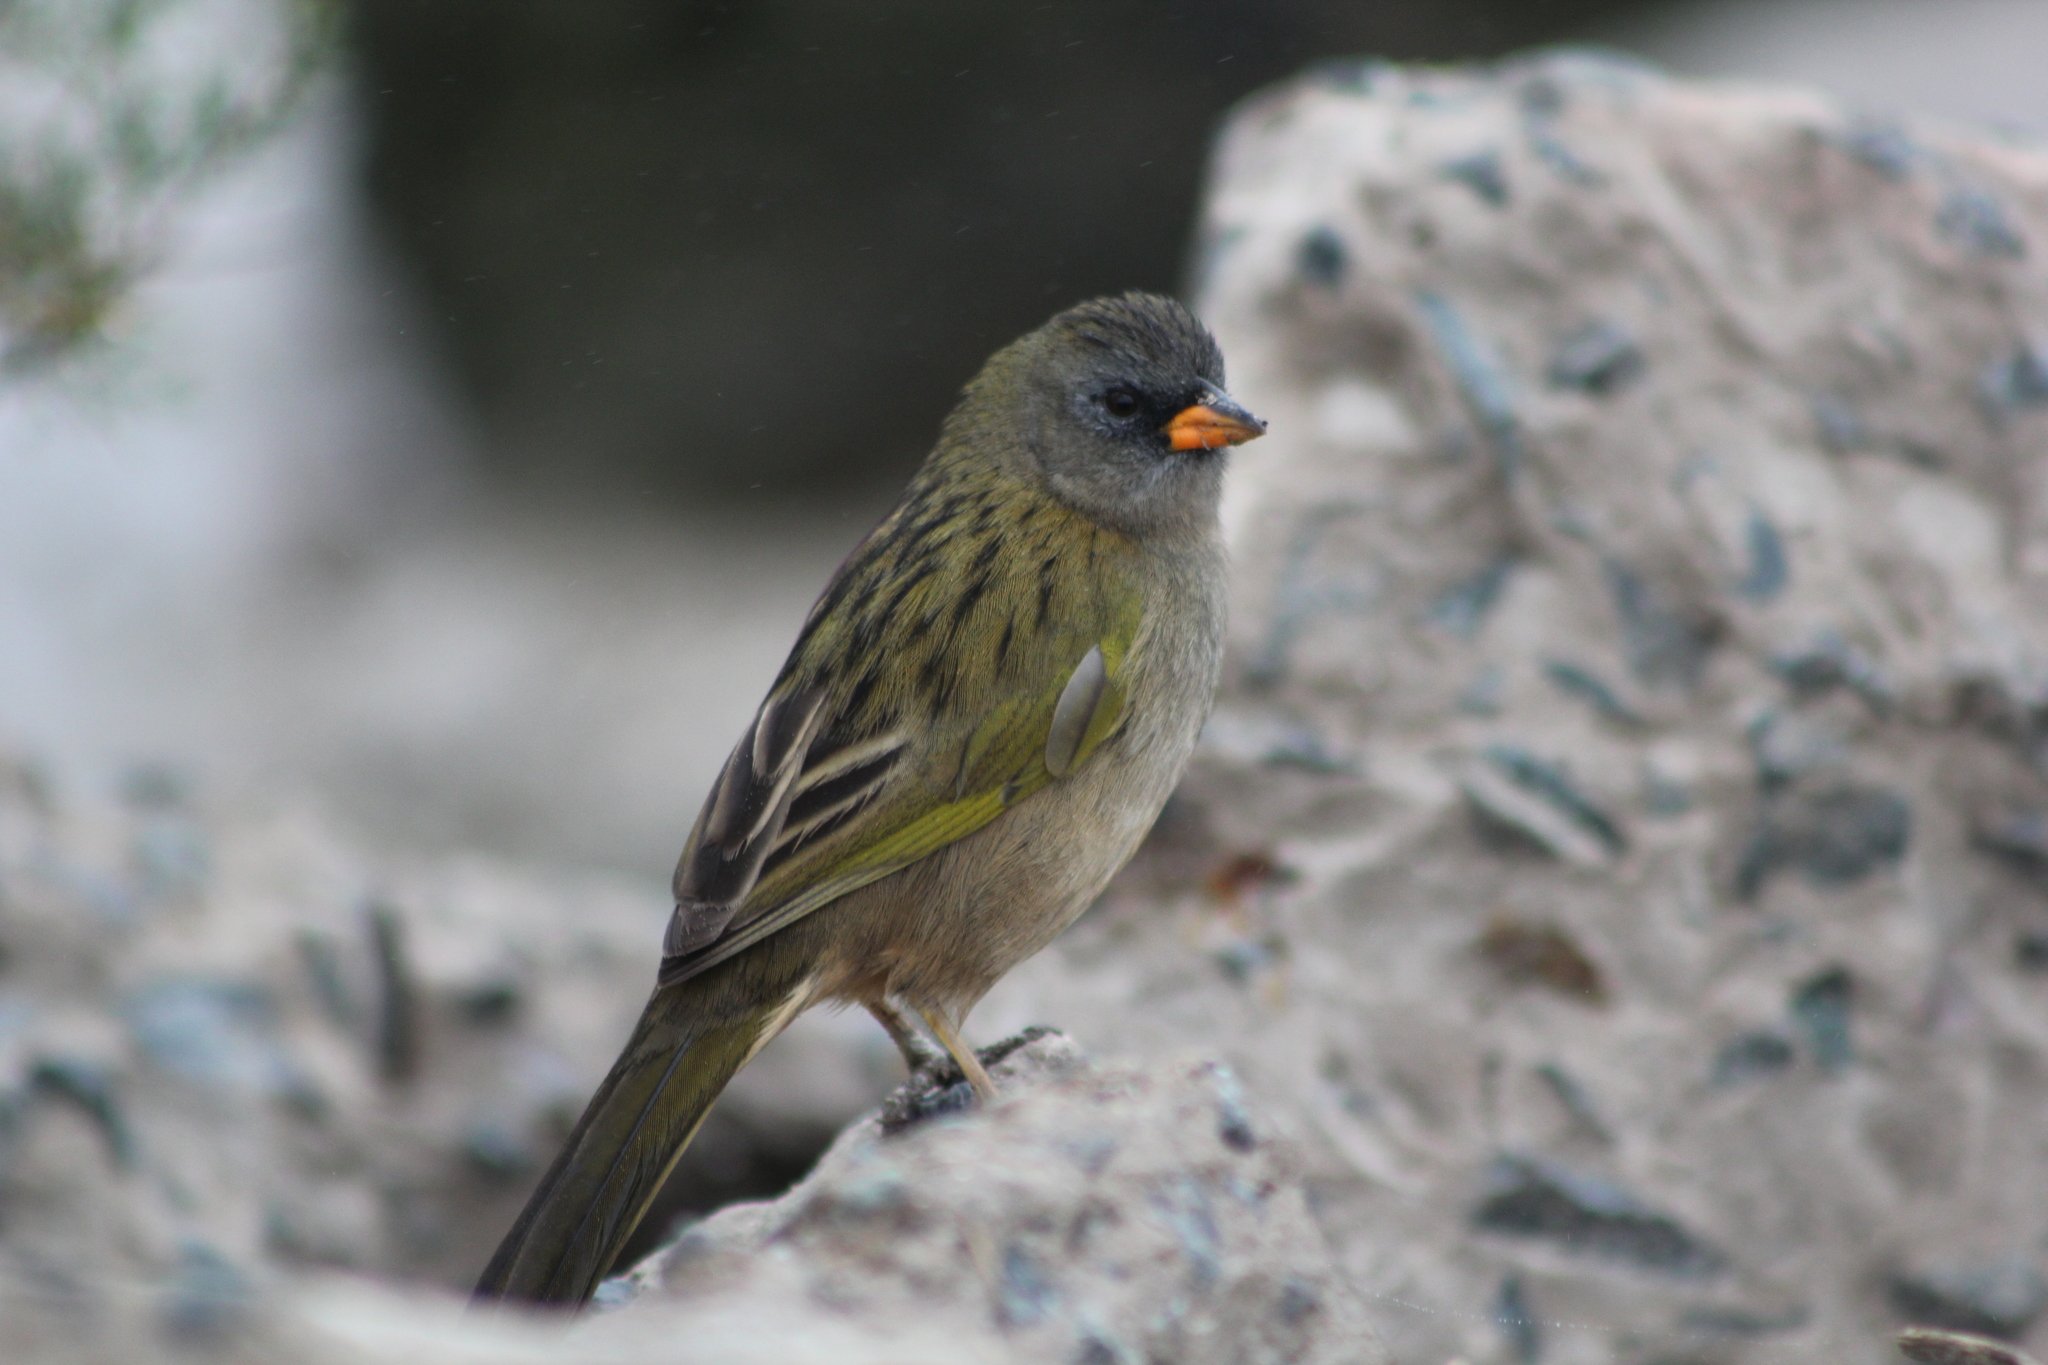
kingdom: Animalia
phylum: Chordata
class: Aves
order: Passeriformes
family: Thraupidae
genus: Embernagra
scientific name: Embernagra platensis
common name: Pampa finch
